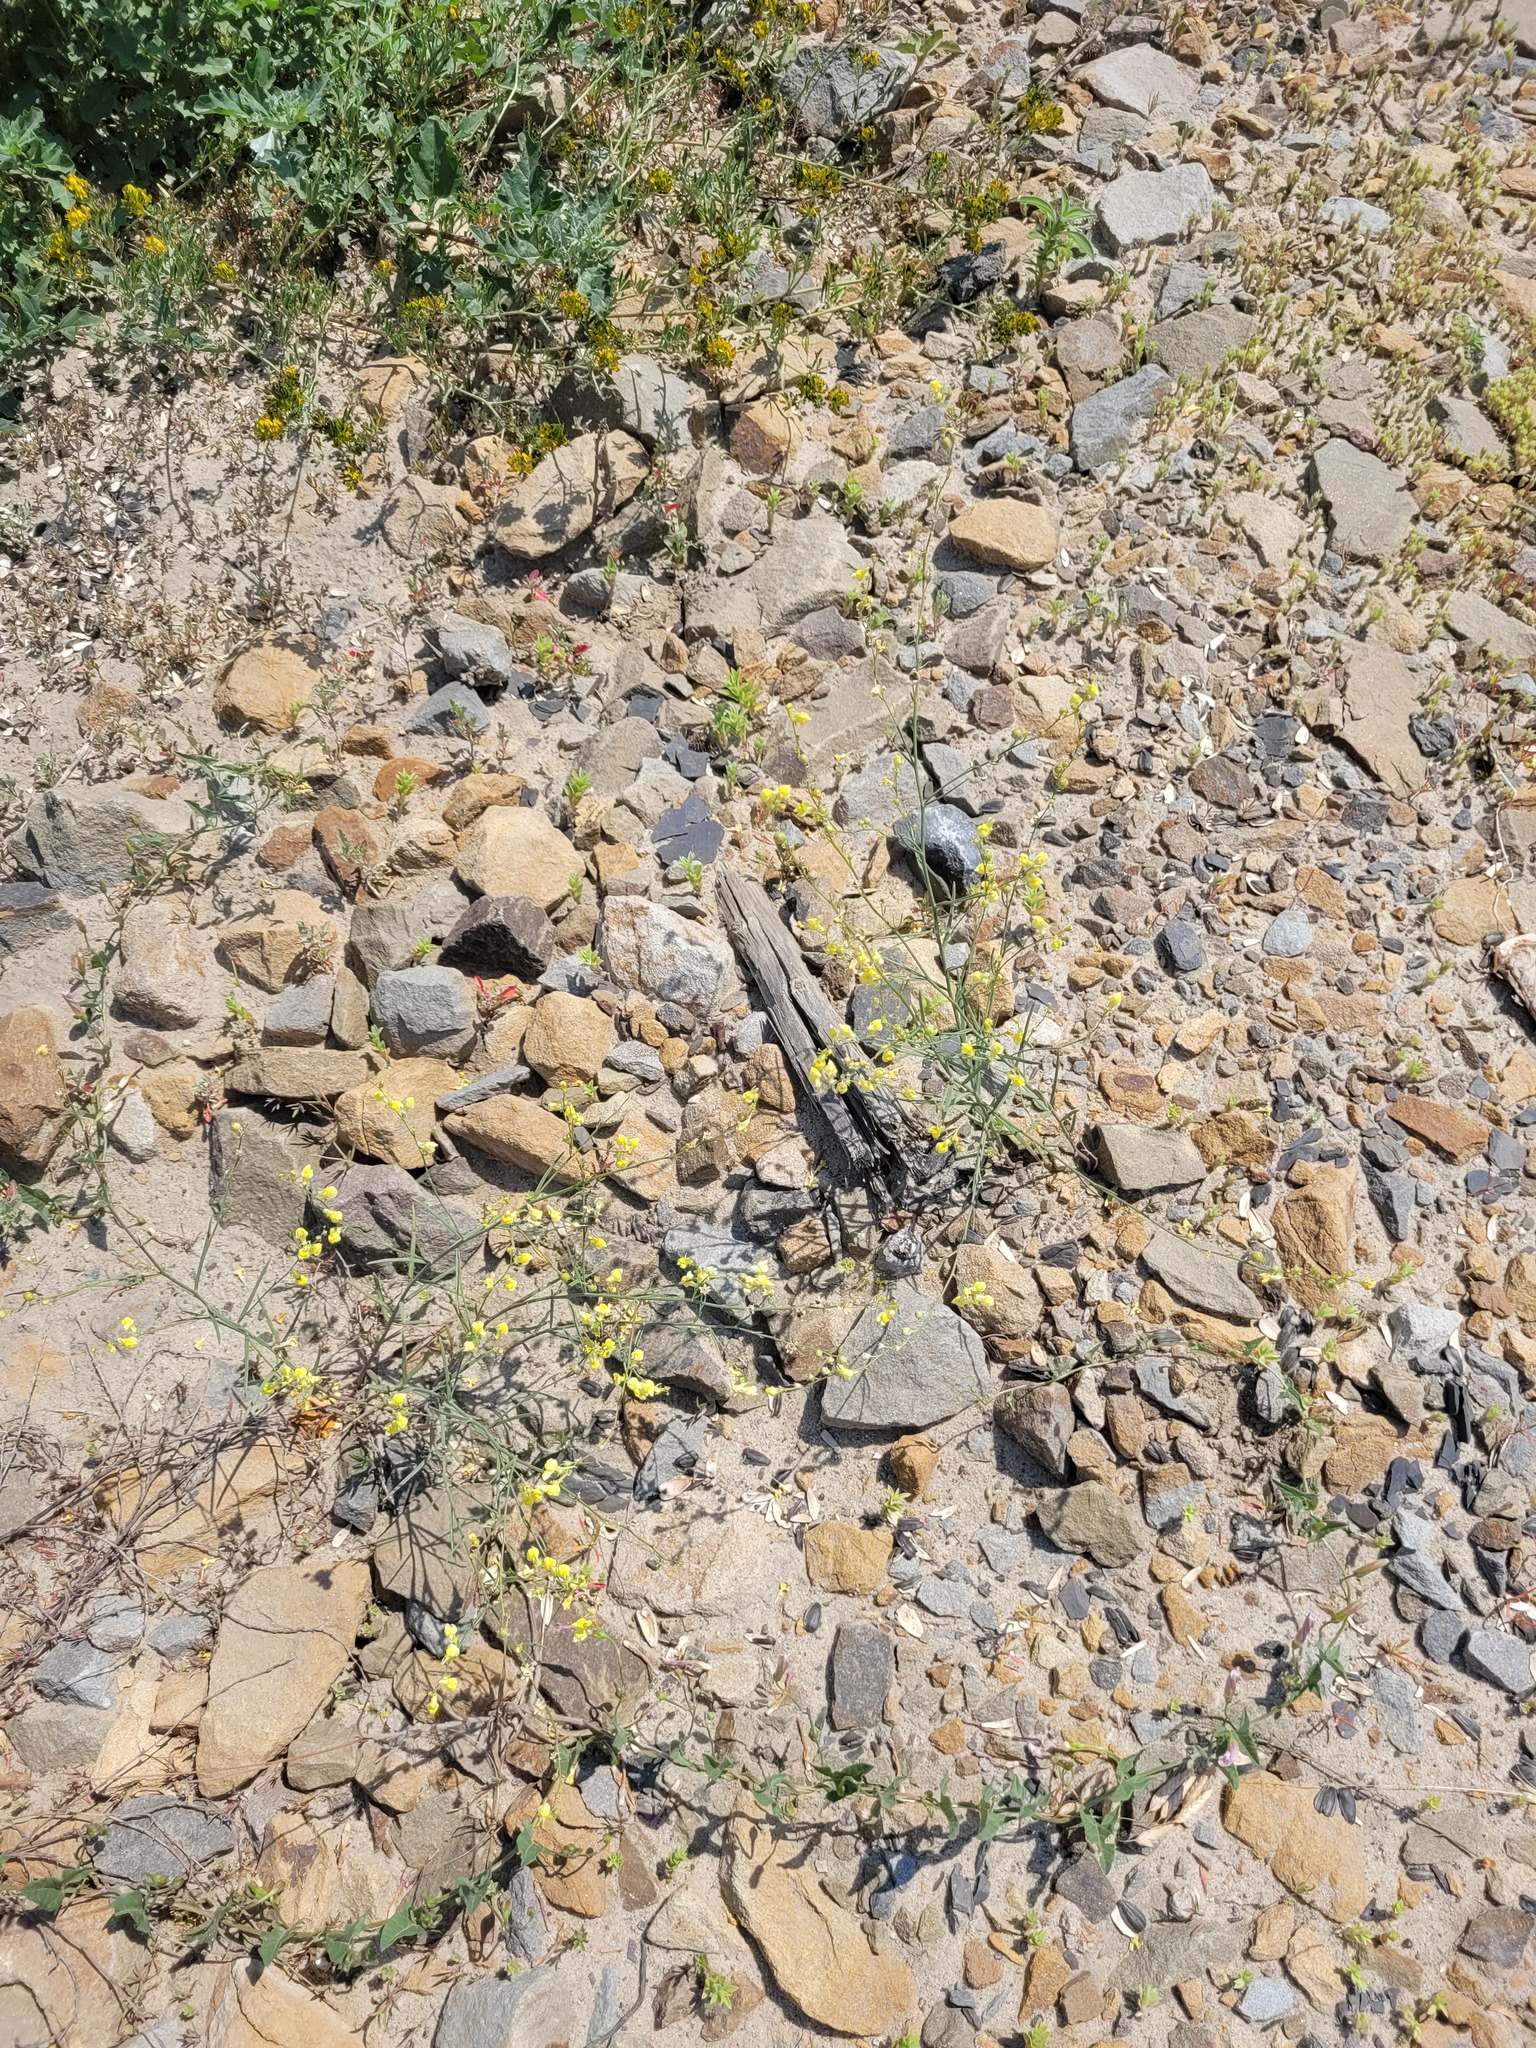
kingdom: Plantae
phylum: Tracheophyta
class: Magnoliopsida
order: Lamiales
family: Plantaginaceae
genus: Linaria
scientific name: Linaria odora
